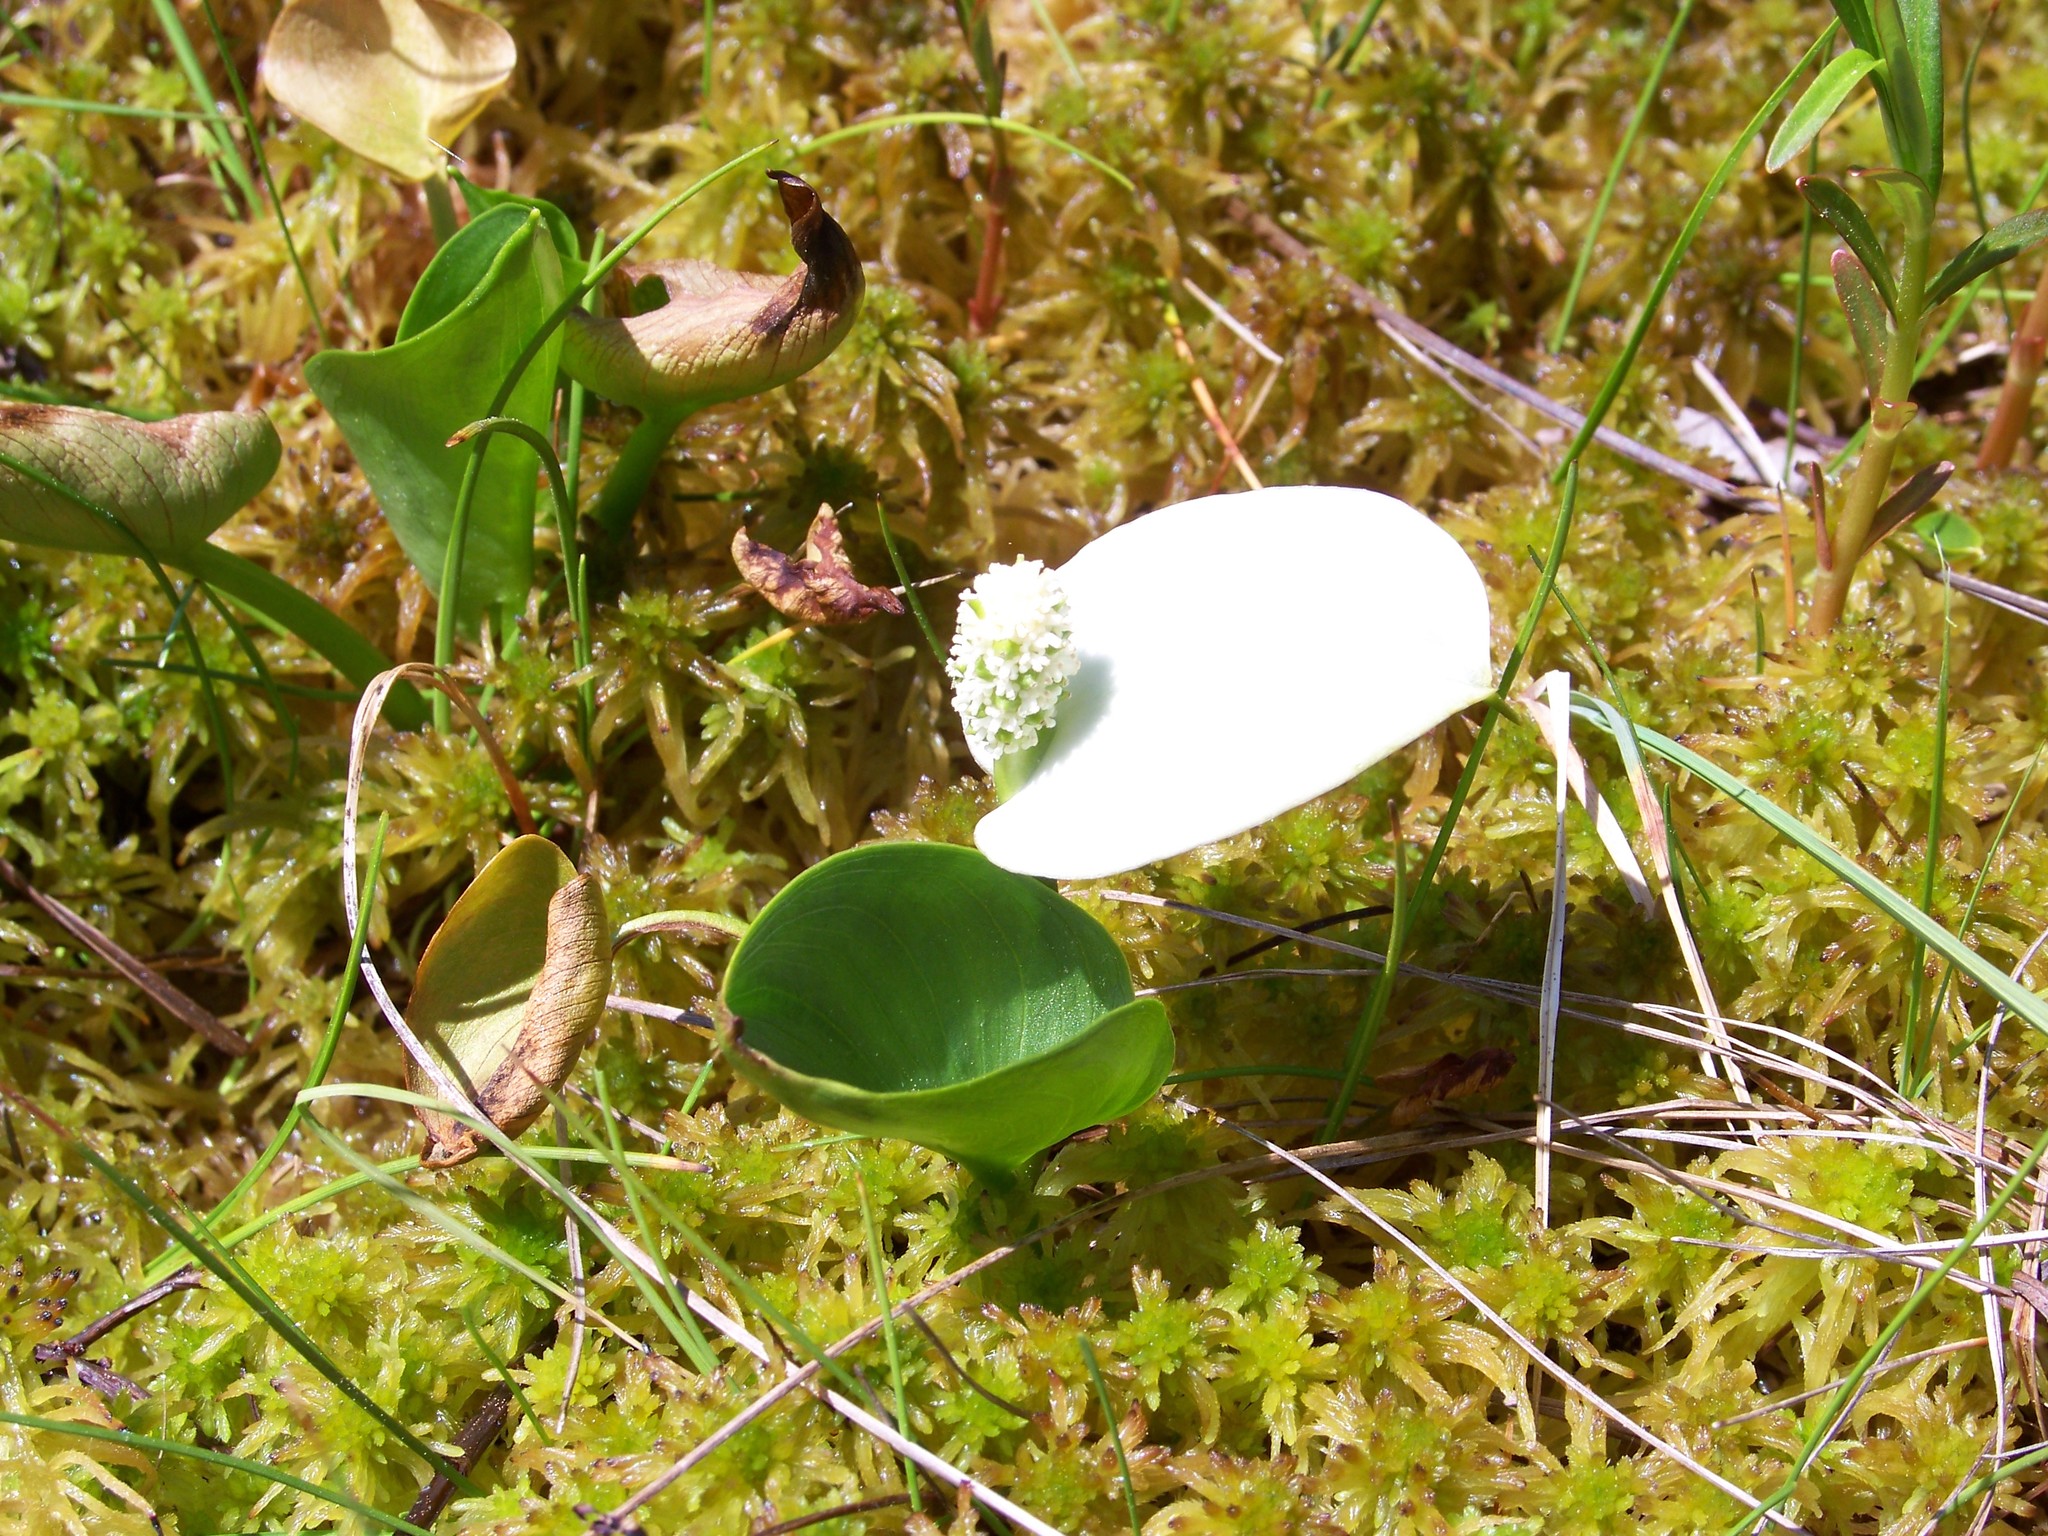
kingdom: Plantae
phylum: Tracheophyta
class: Liliopsida
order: Alismatales
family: Araceae
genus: Calla
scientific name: Calla palustris
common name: Bog arum
